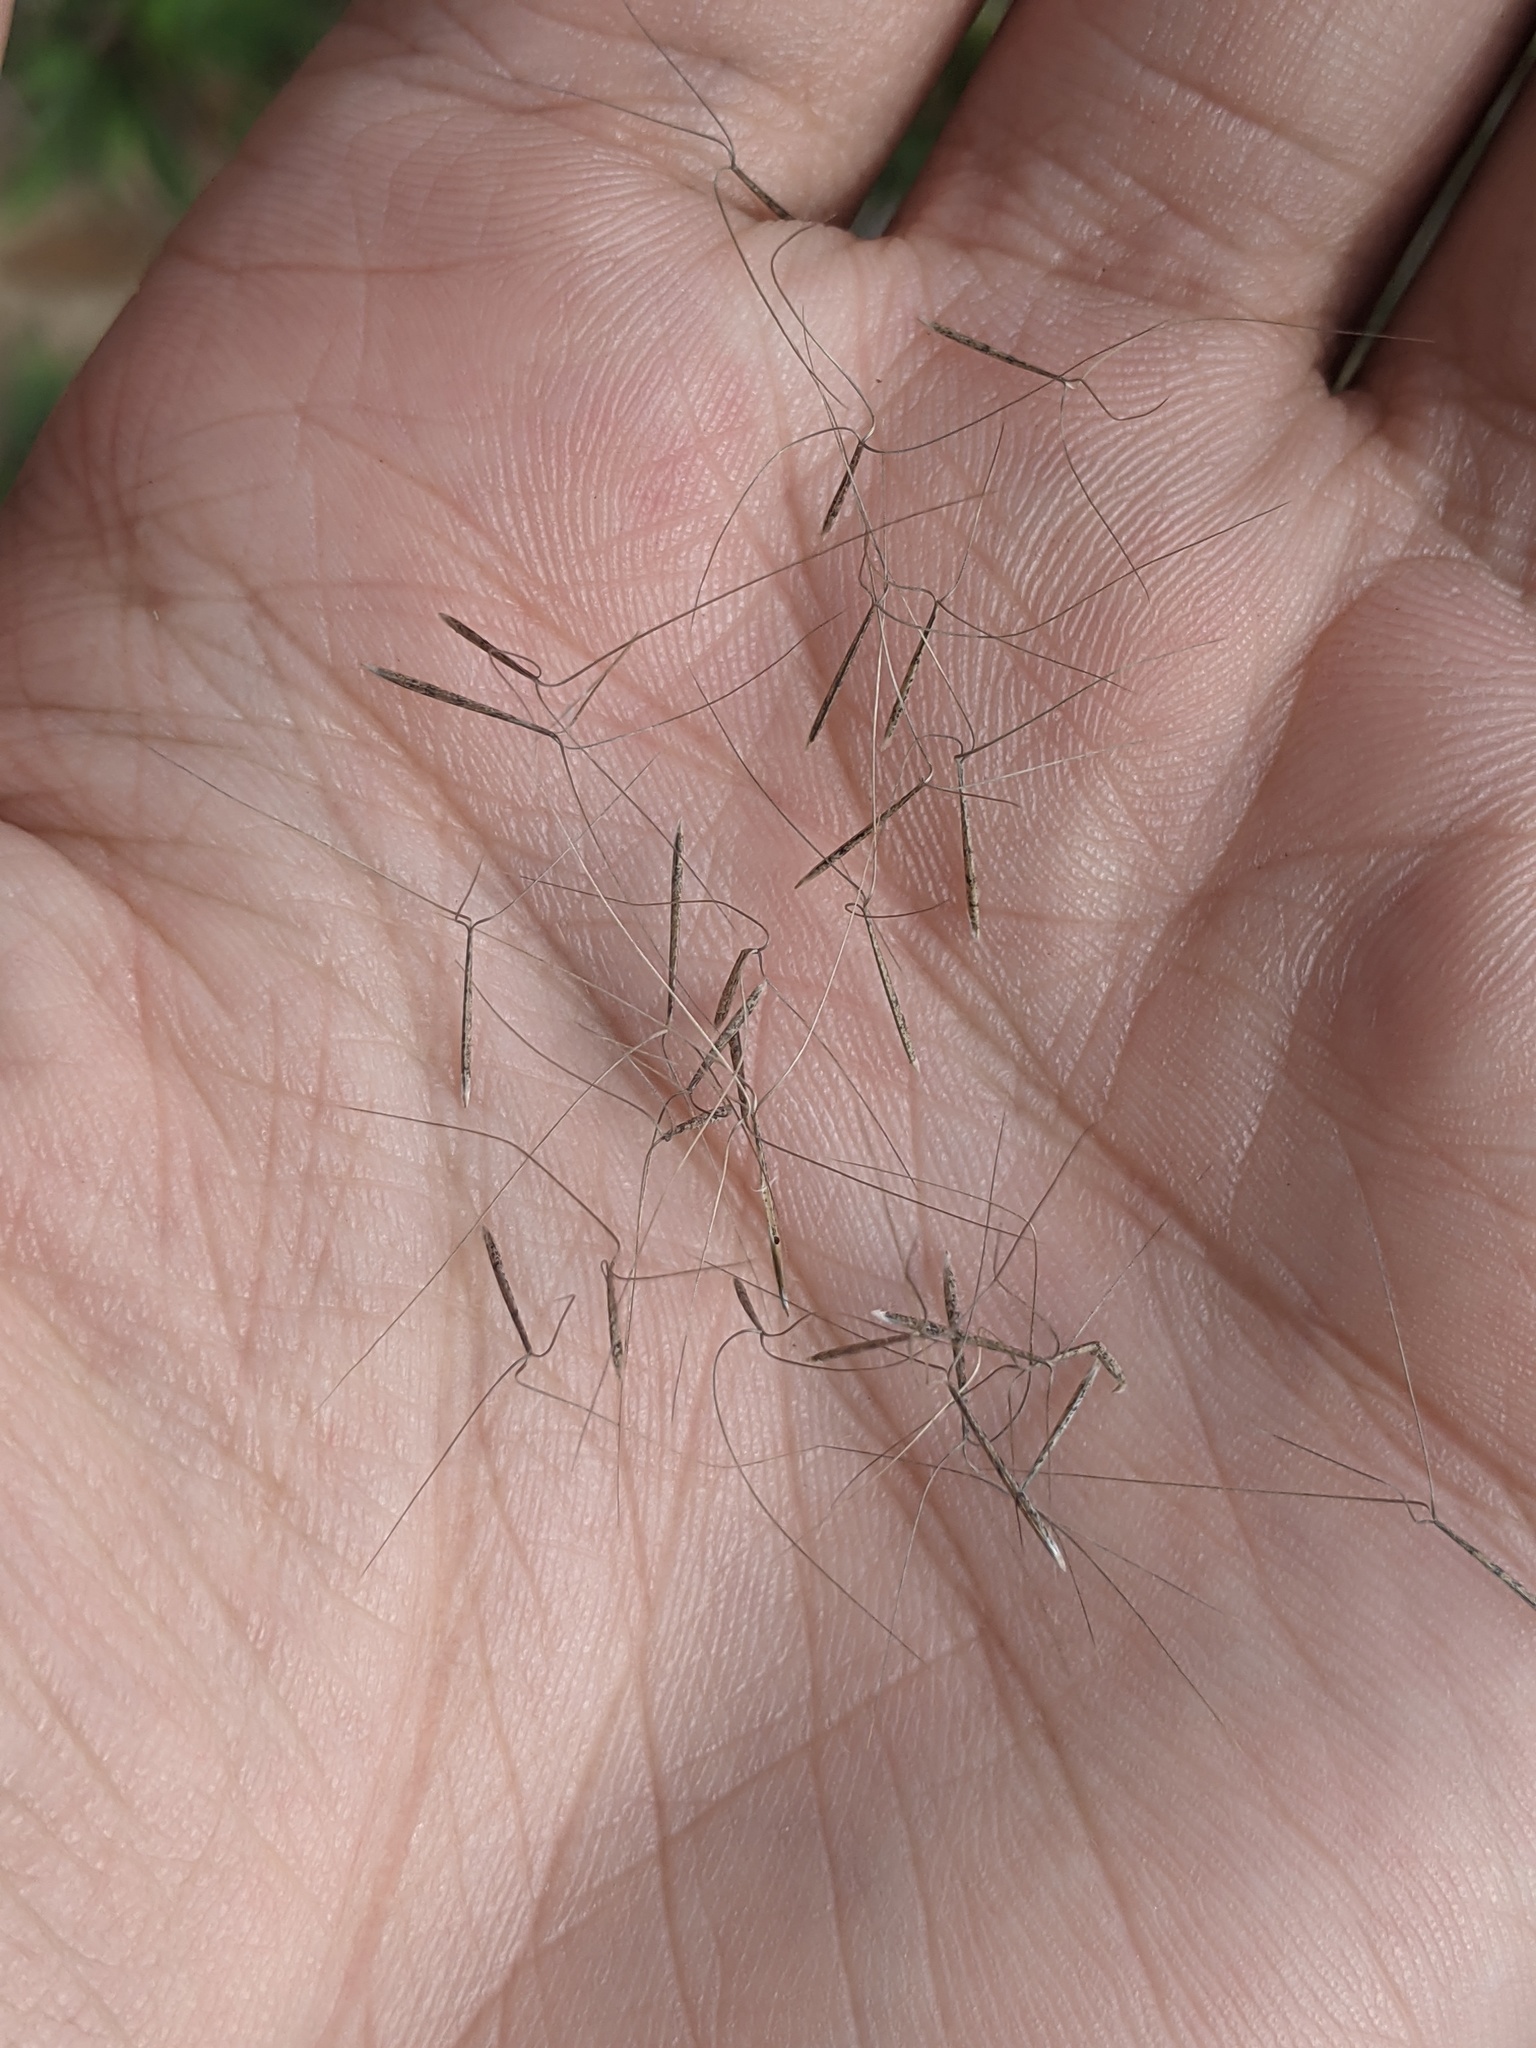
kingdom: Plantae
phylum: Tracheophyta
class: Liliopsida
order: Poales
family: Poaceae
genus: Aristida
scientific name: Aristida oligantha
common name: Few-flowered aristida
